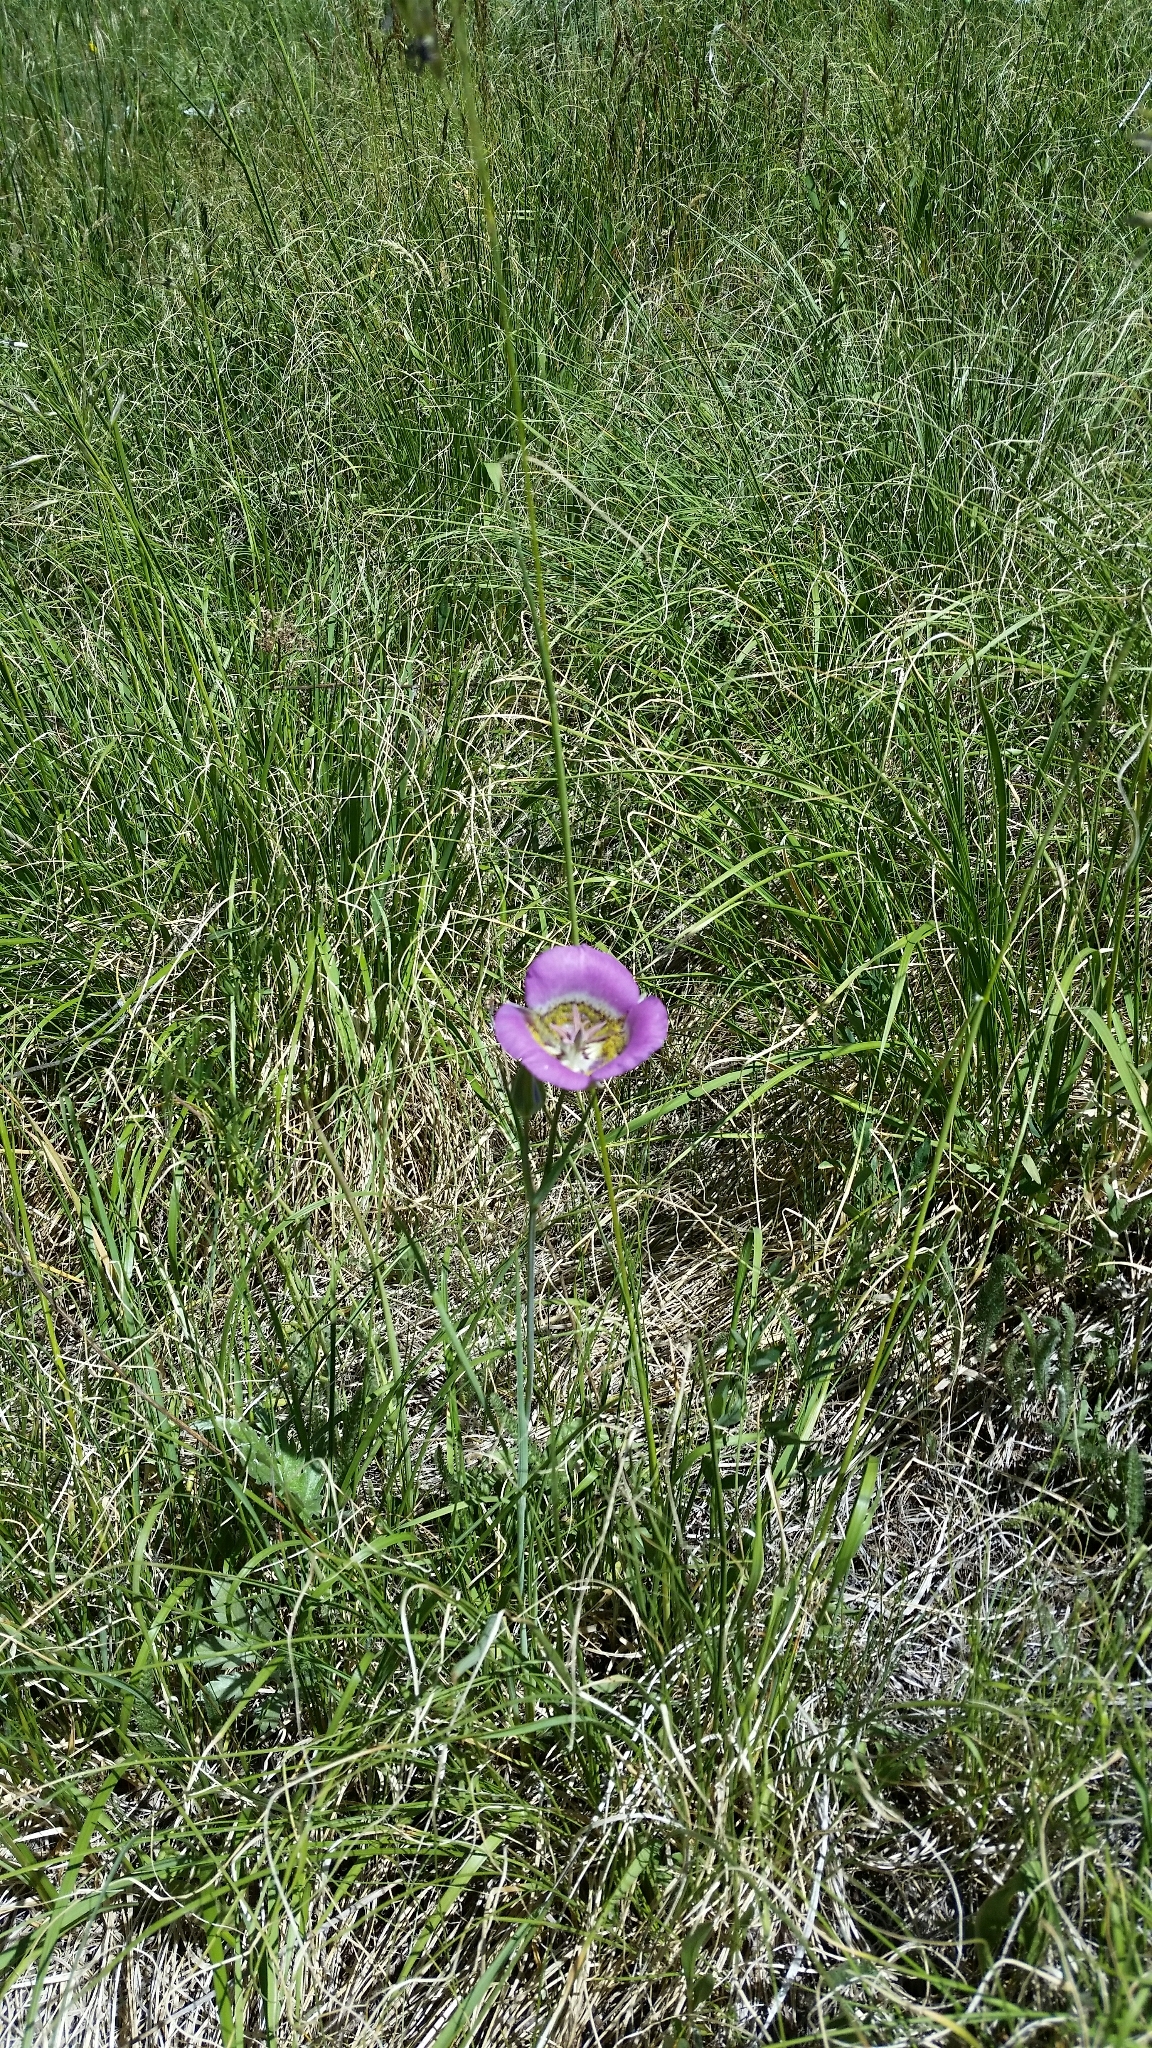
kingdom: Plantae
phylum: Tracheophyta
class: Liliopsida
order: Liliales
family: Liliaceae
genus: Calochortus
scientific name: Calochortus gunnisonii
